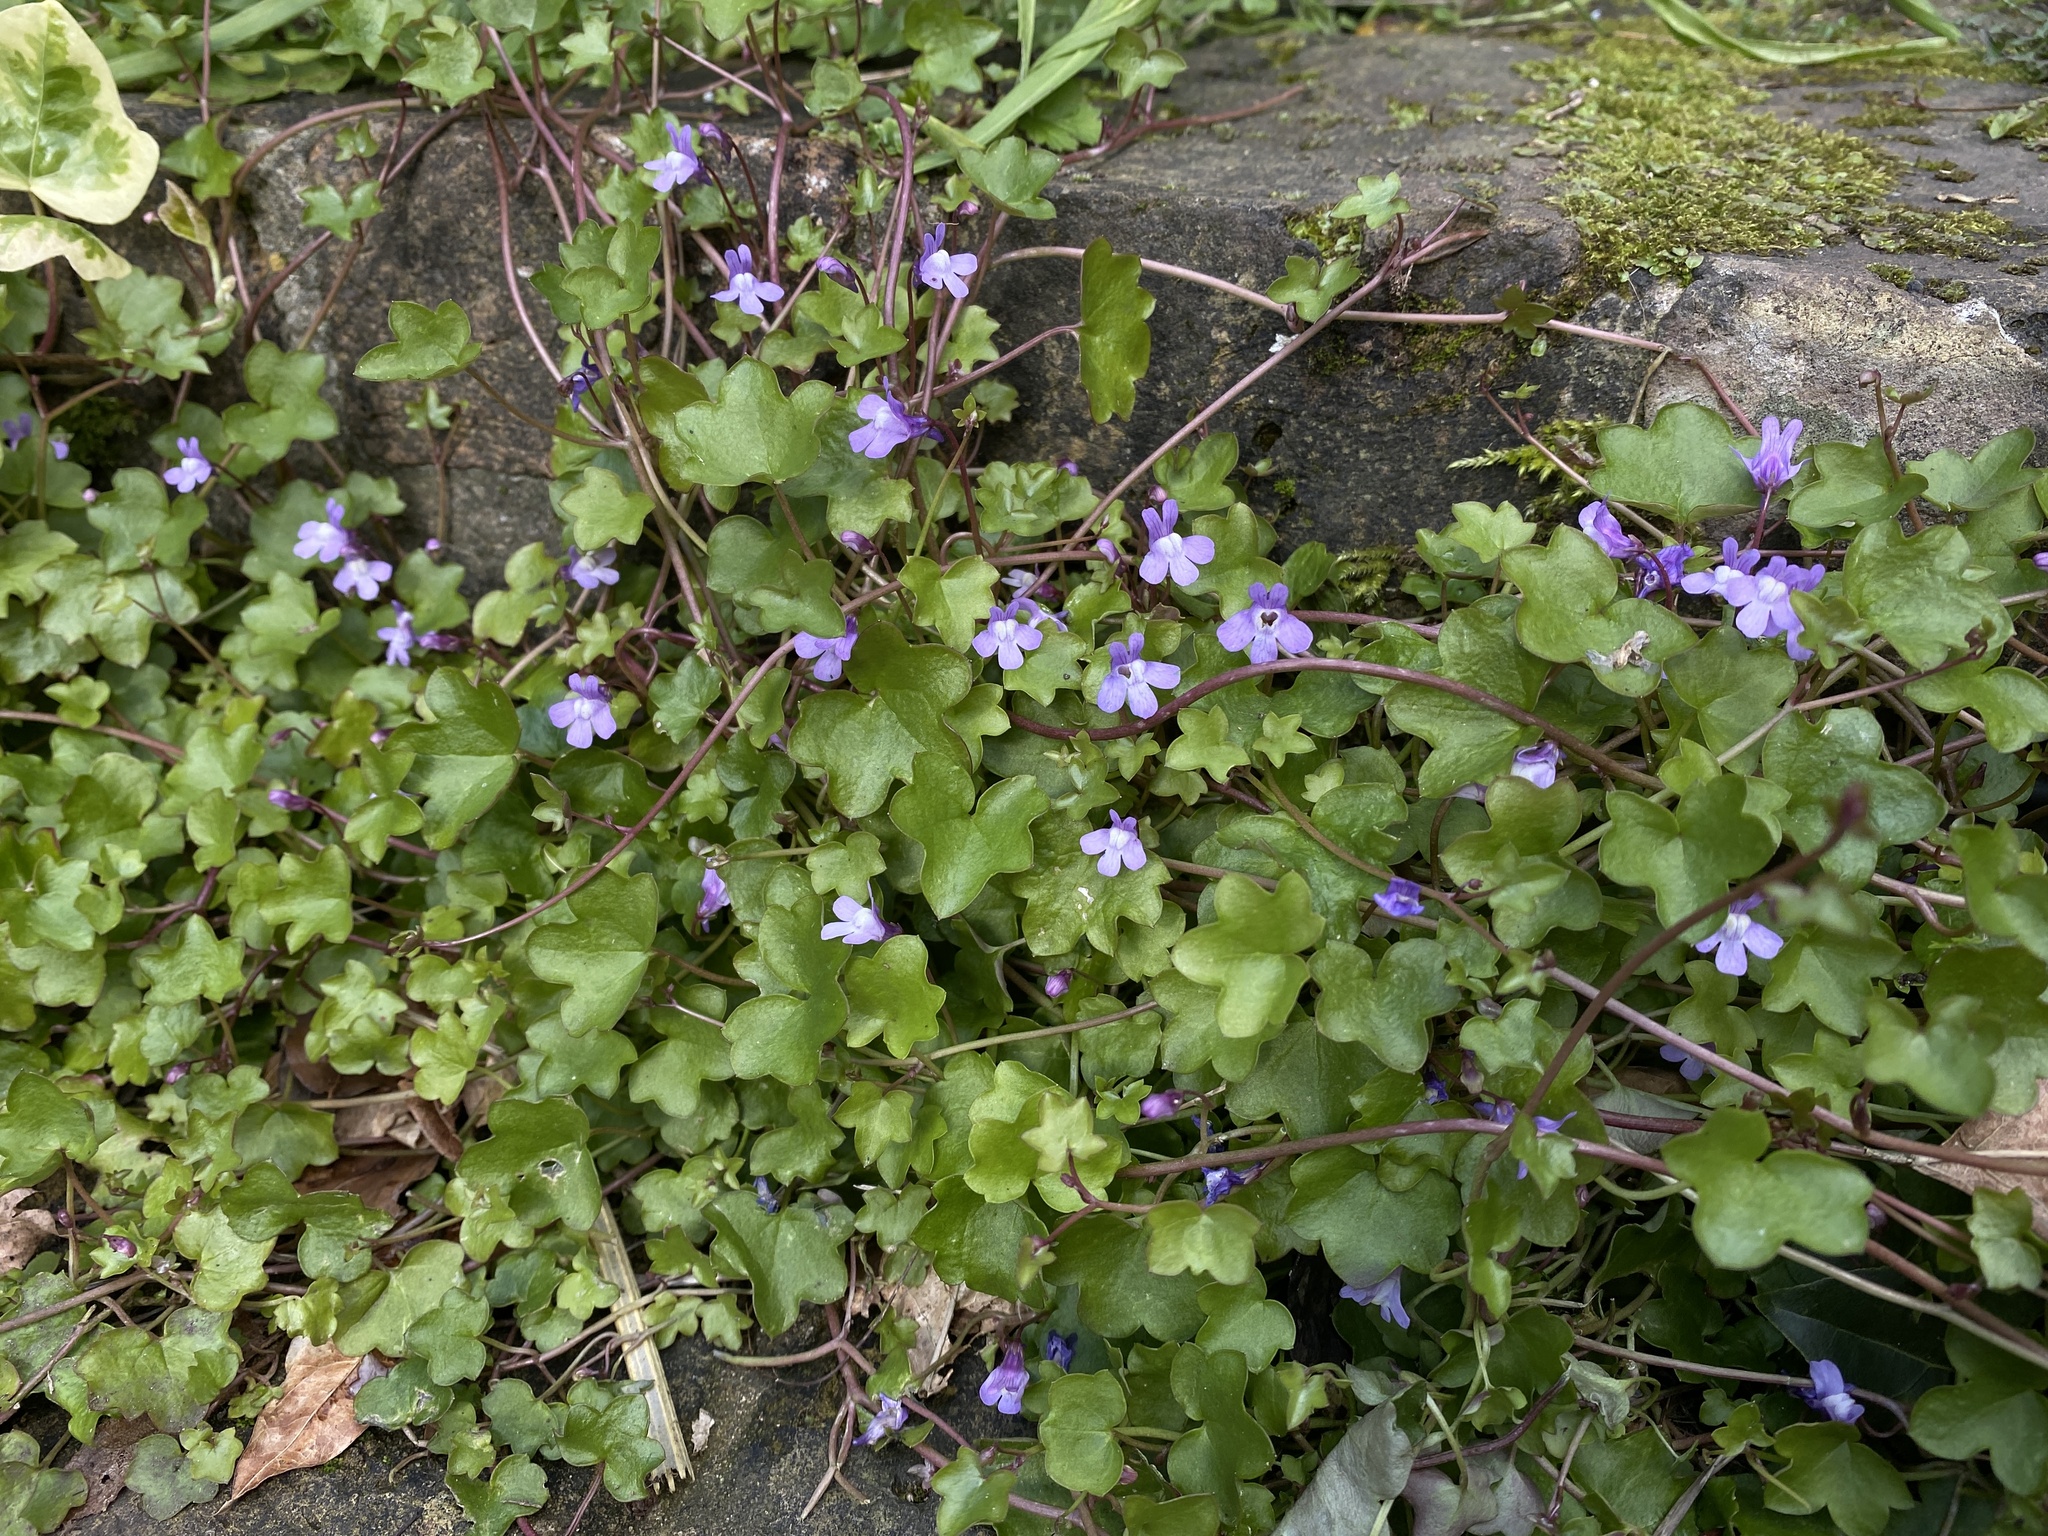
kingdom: Plantae
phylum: Tracheophyta
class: Magnoliopsida
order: Lamiales
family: Plantaginaceae
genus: Cymbalaria
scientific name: Cymbalaria muralis
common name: Ivy-leaved toadflax
